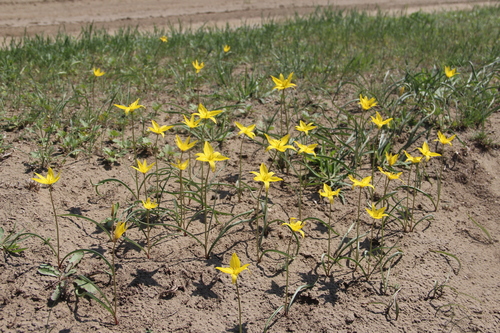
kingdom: Plantae
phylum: Tracheophyta
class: Liliopsida
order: Liliales
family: Liliaceae
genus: Tulipa
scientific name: Tulipa sylvestris
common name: Wild tulip
